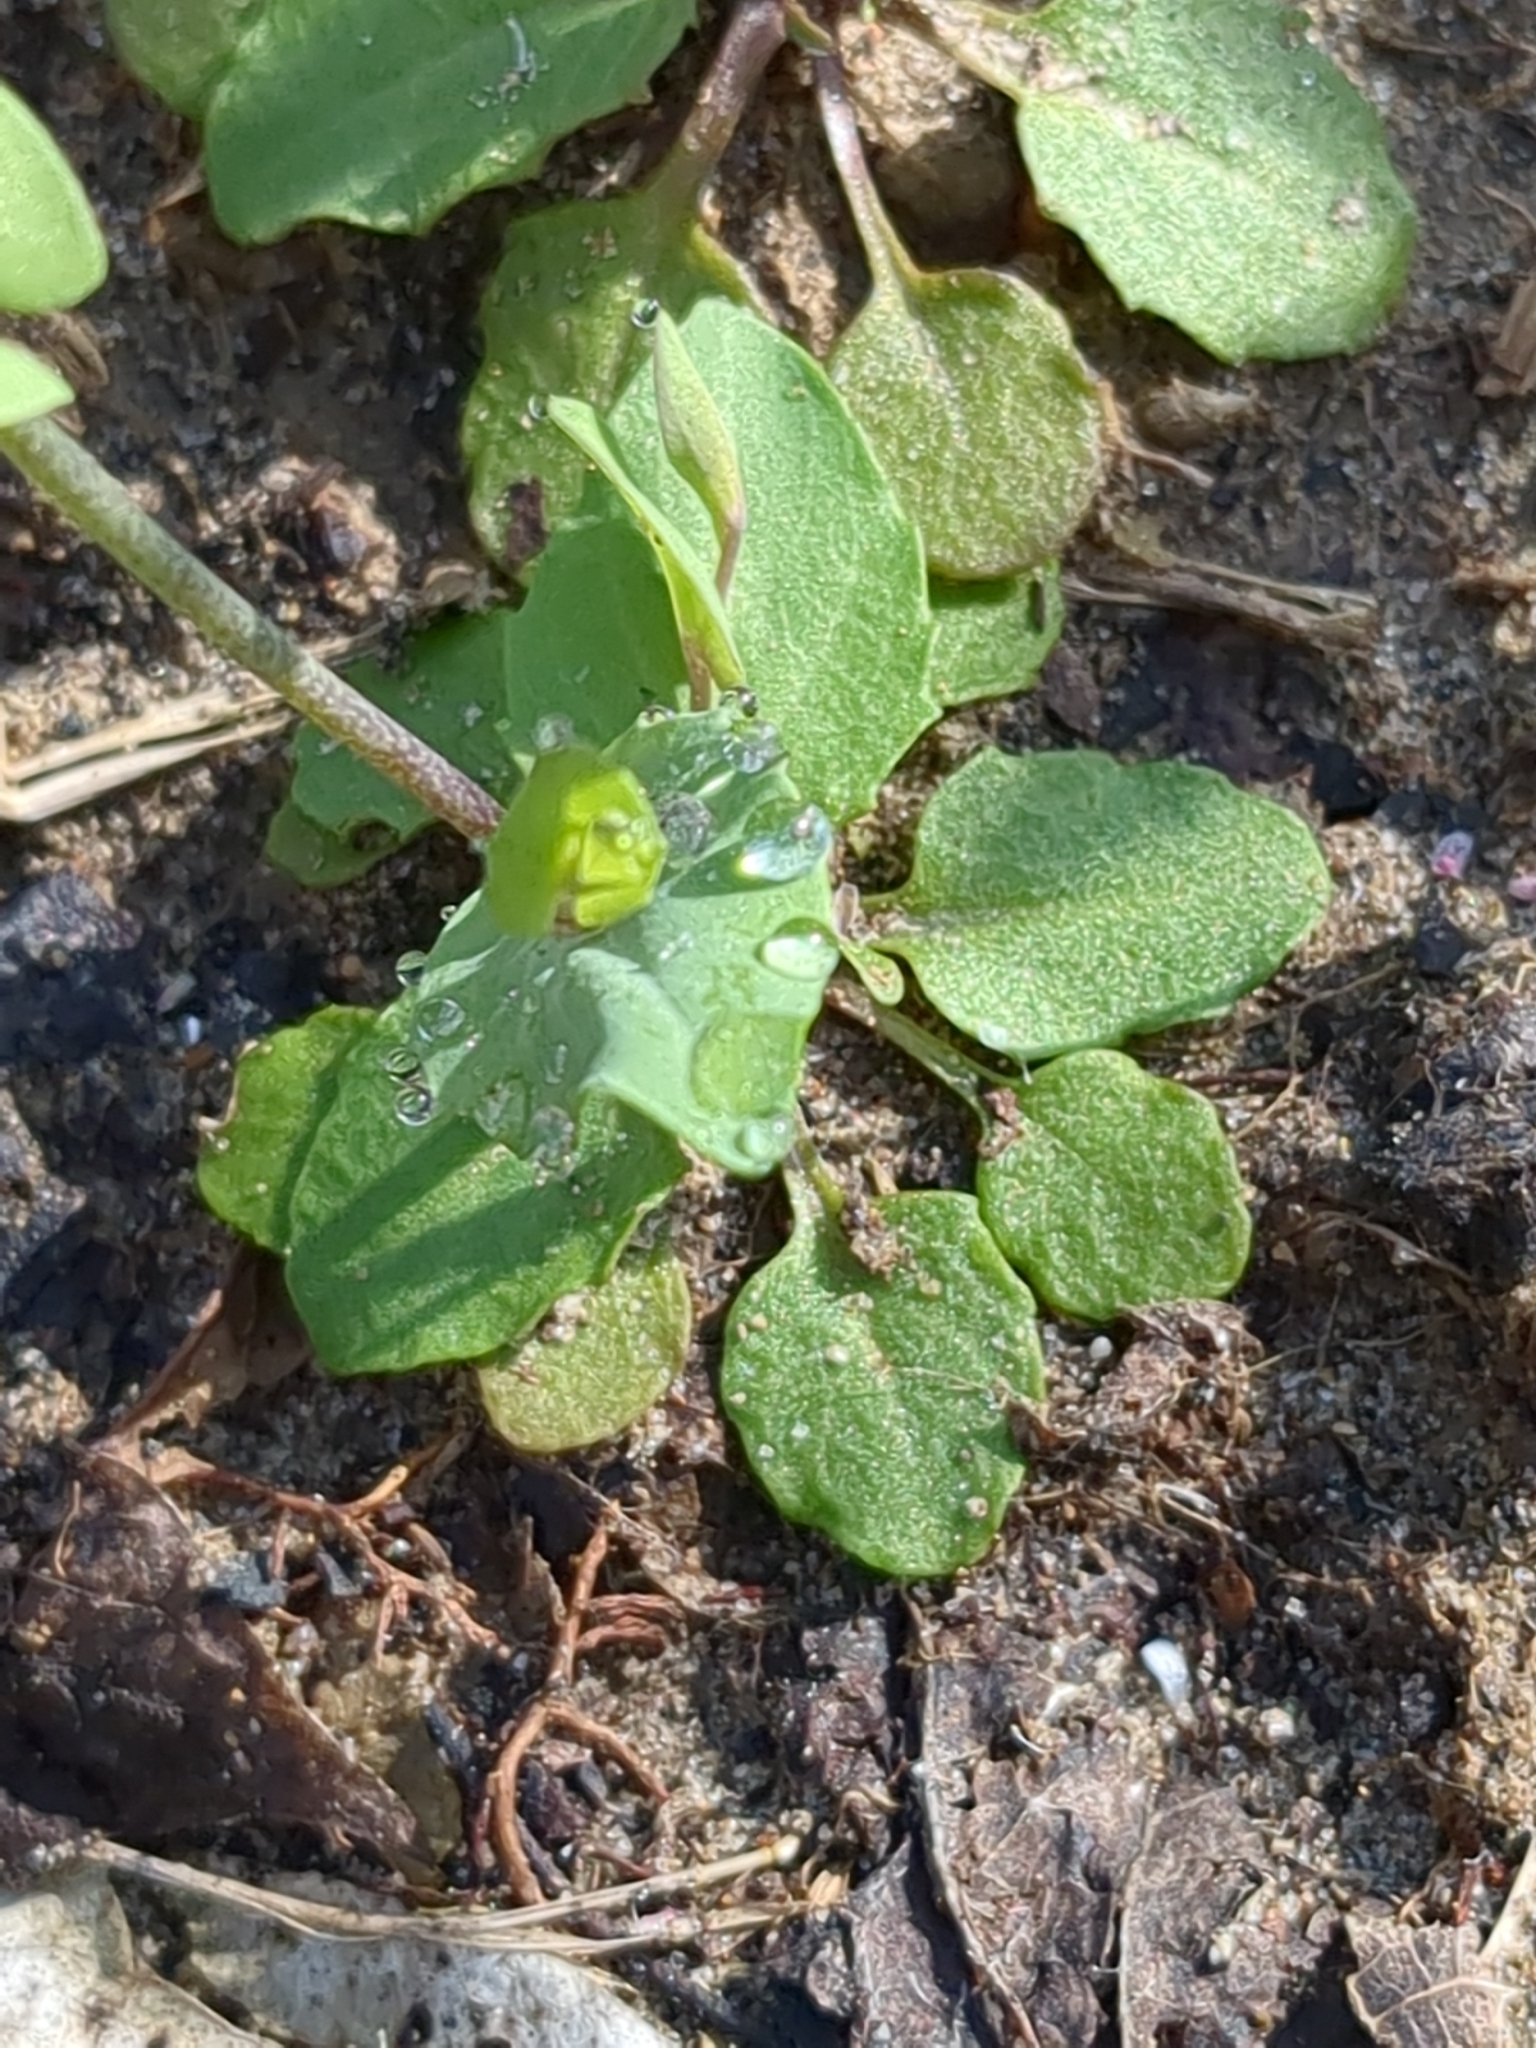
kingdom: Plantae
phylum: Tracheophyta
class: Magnoliopsida
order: Brassicales
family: Brassicaceae
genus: Noccaea
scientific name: Noccaea perfoliata
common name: Perfoliate pennycress
